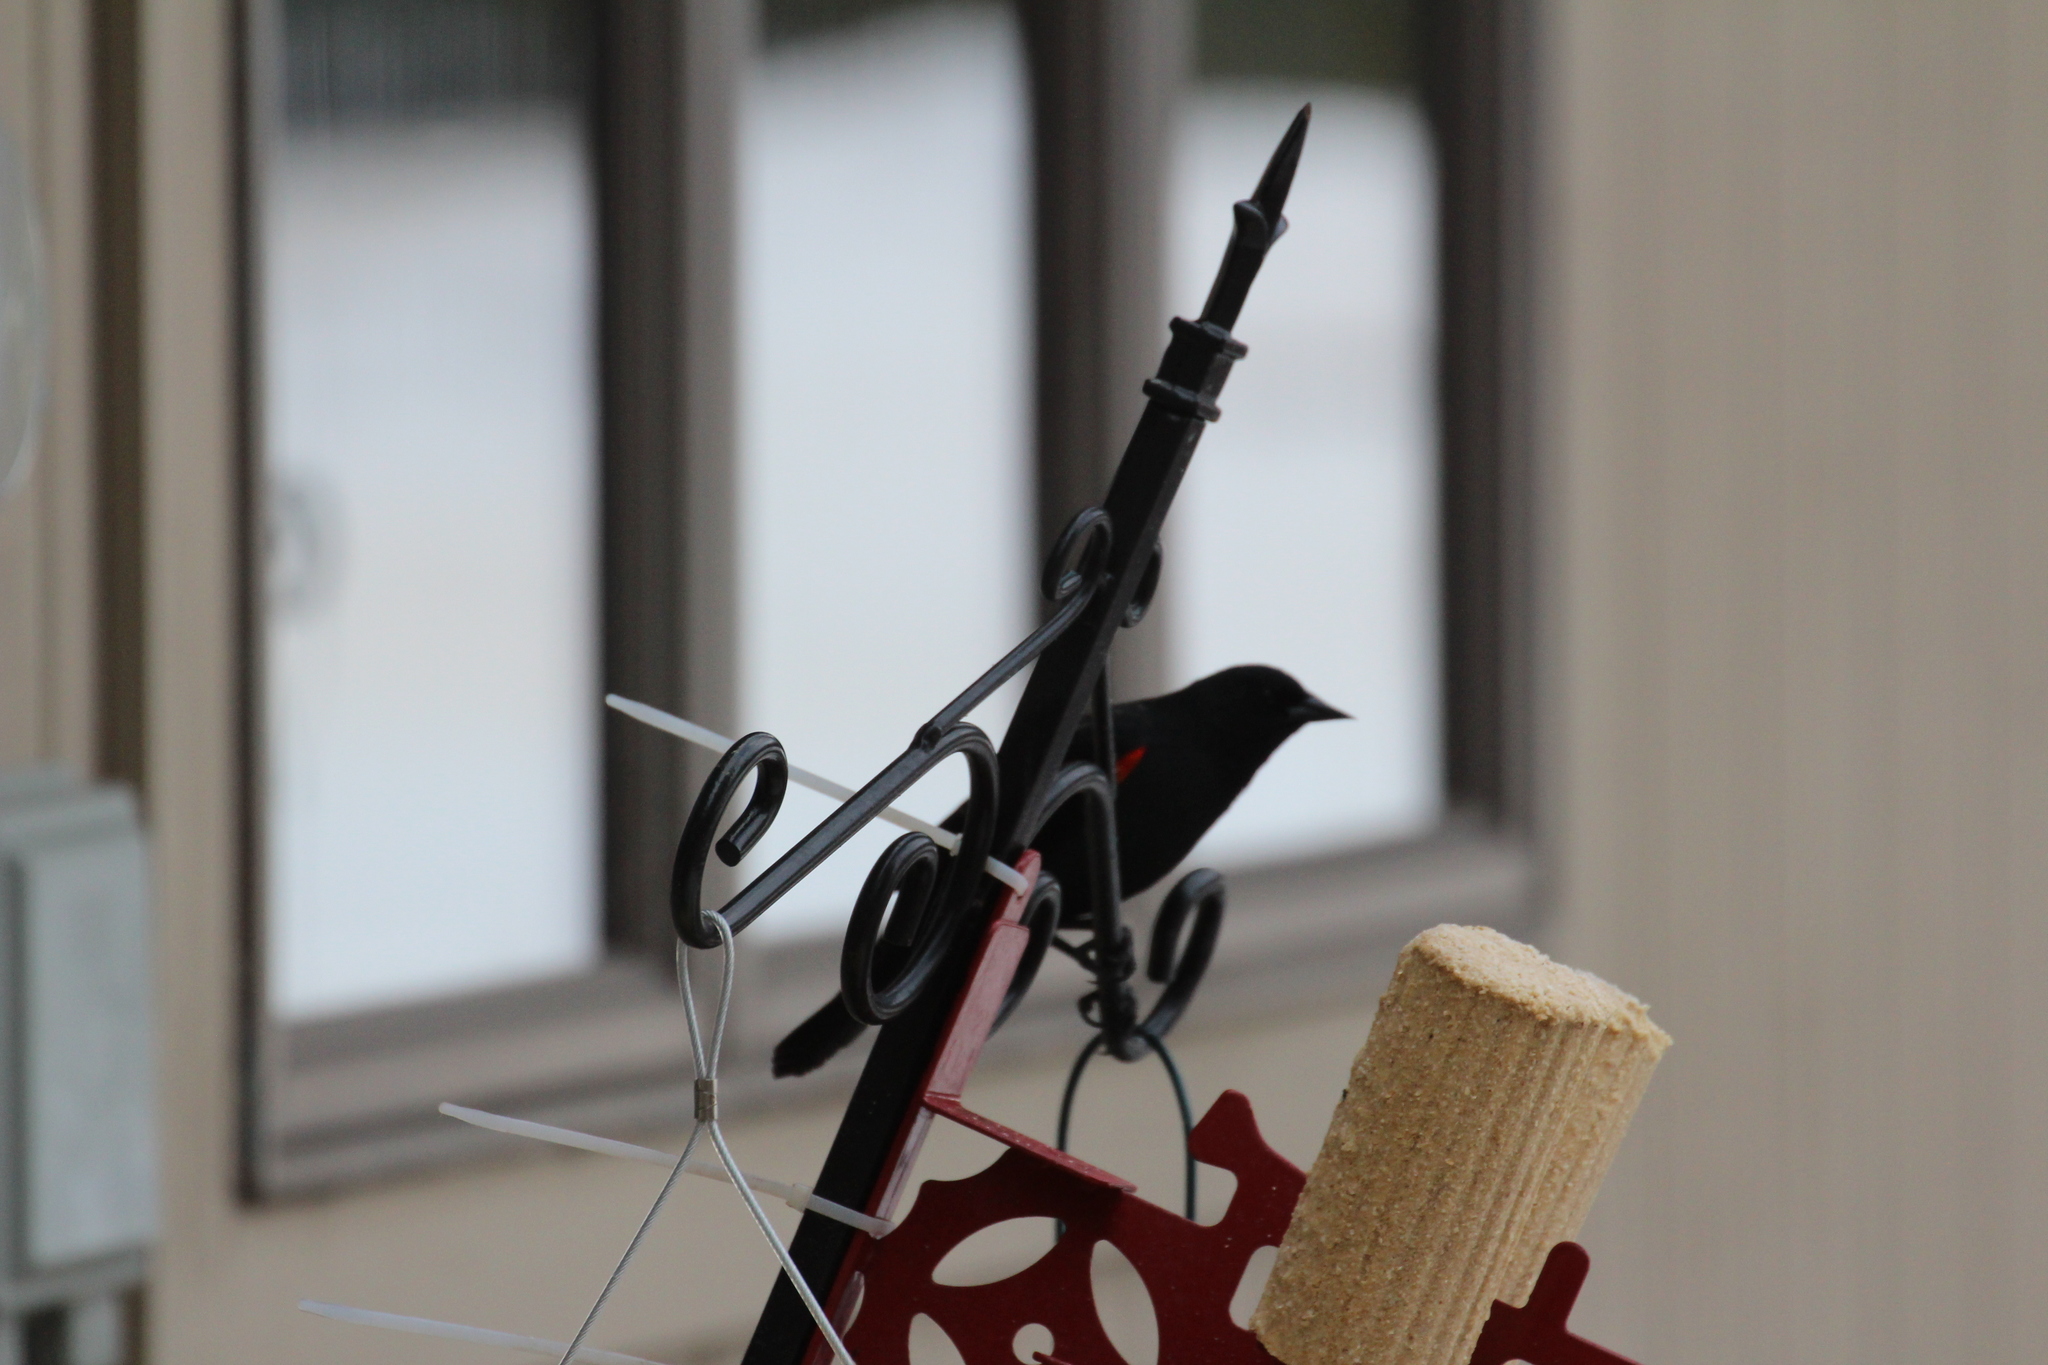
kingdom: Animalia
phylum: Chordata
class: Aves
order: Passeriformes
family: Icteridae
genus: Agelaius
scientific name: Agelaius phoeniceus
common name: Red-winged blackbird
